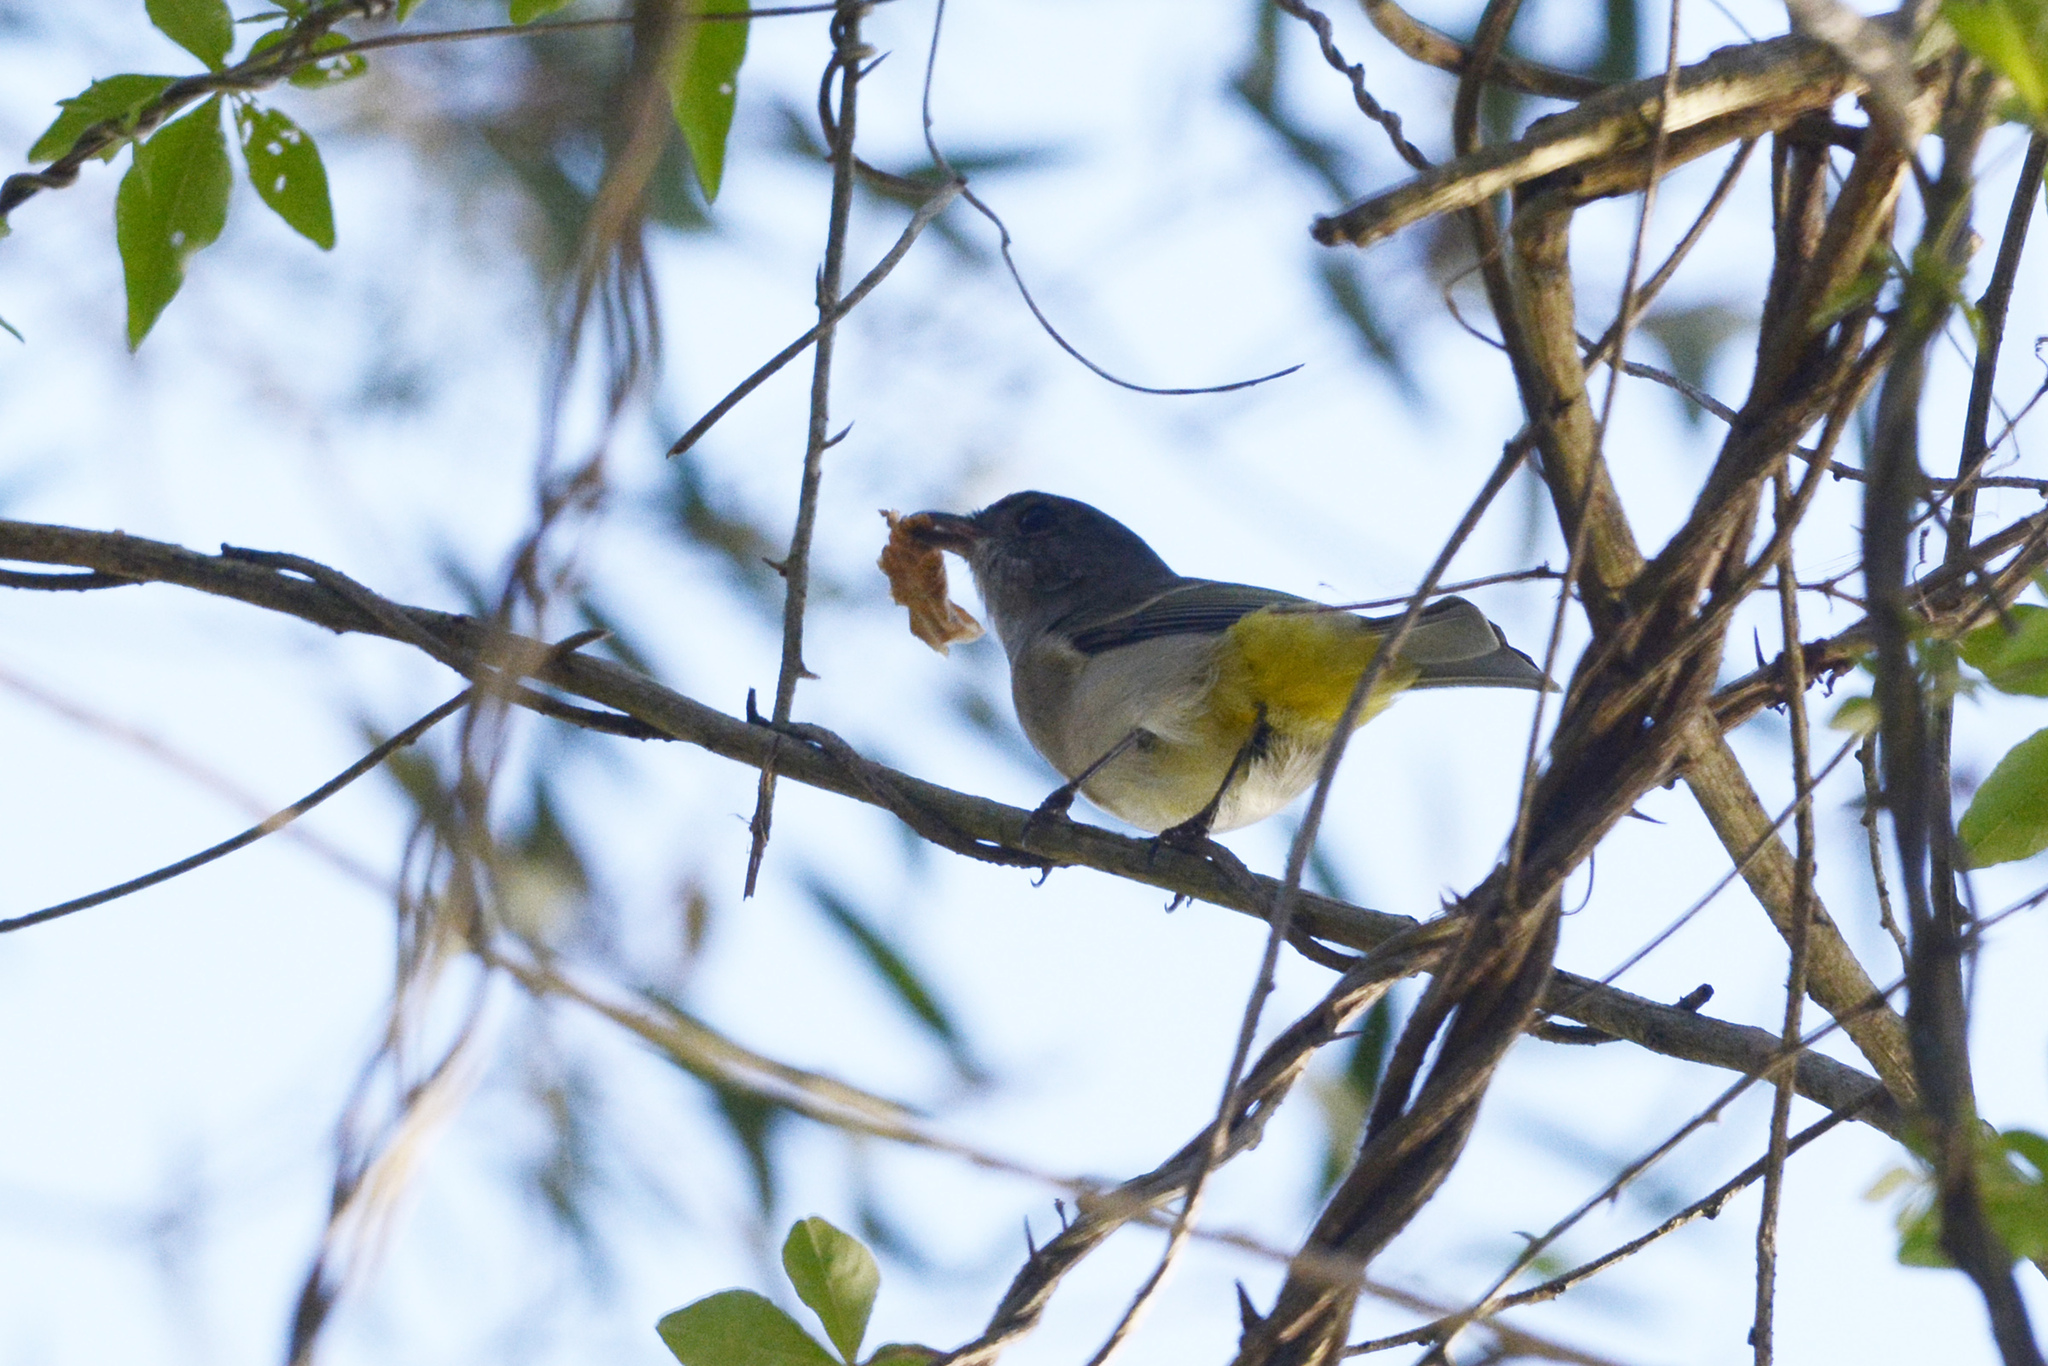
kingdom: Animalia
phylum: Chordata
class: Aves
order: Passeriformes
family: Pachycephalidae
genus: Pachycephala
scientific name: Pachycephala pectoralis
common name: Australian golden whistler
